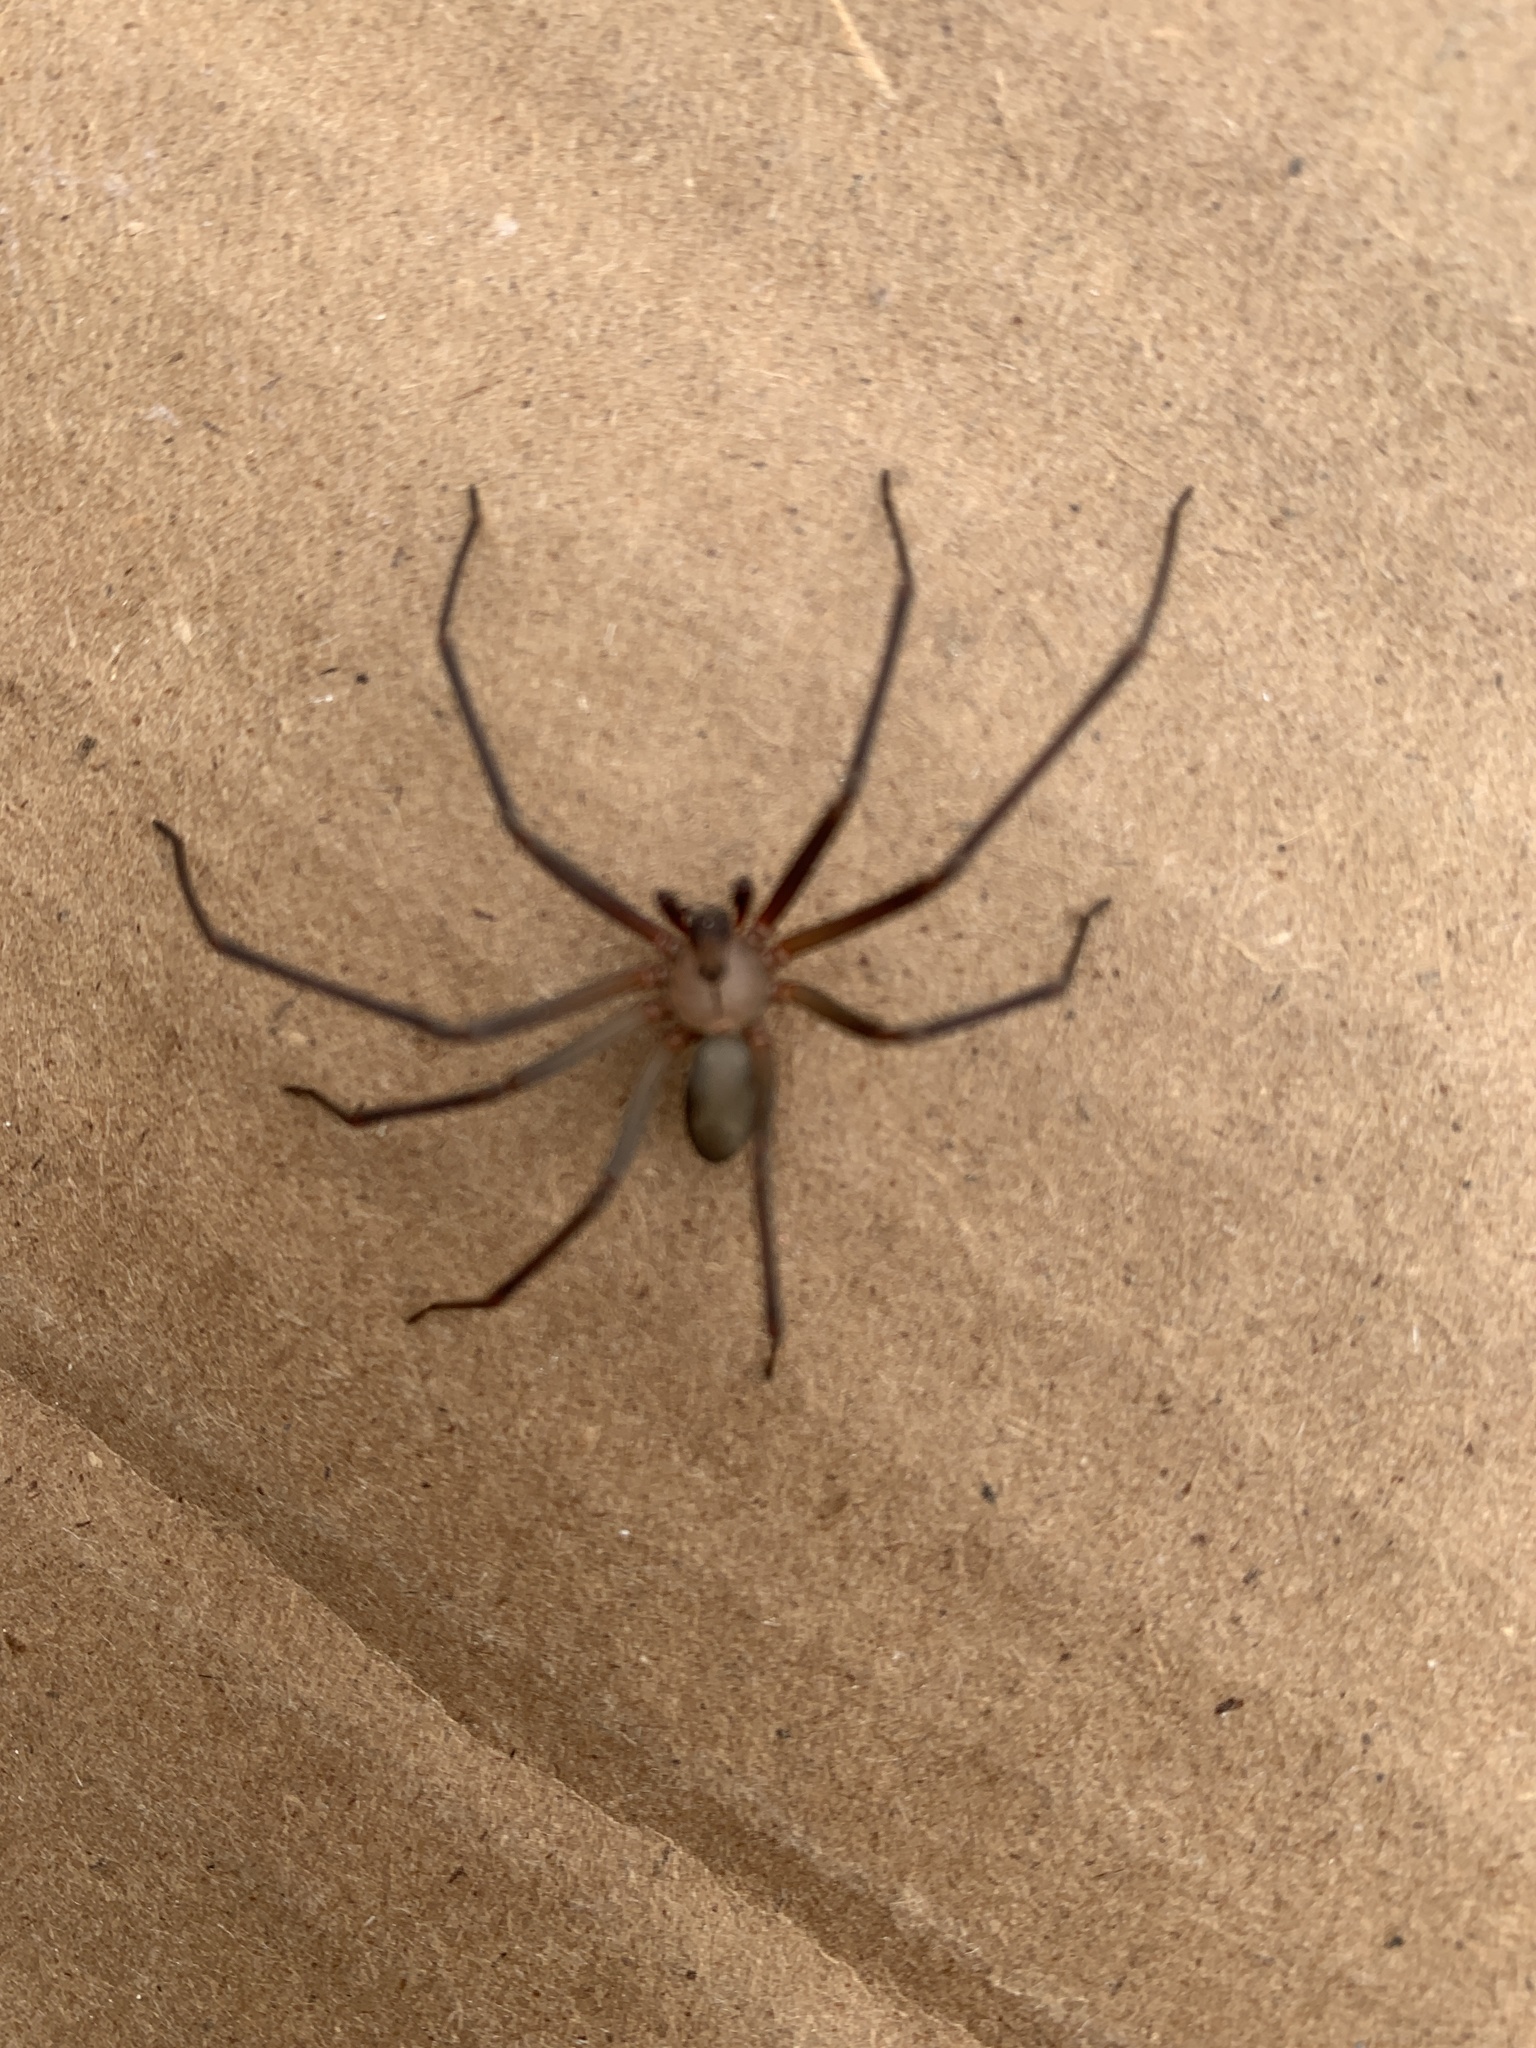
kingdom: Animalia
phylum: Arthropoda
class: Arachnida
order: Araneae
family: Sicariidae
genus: Loxosceles
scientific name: Loxosceles reclusa
